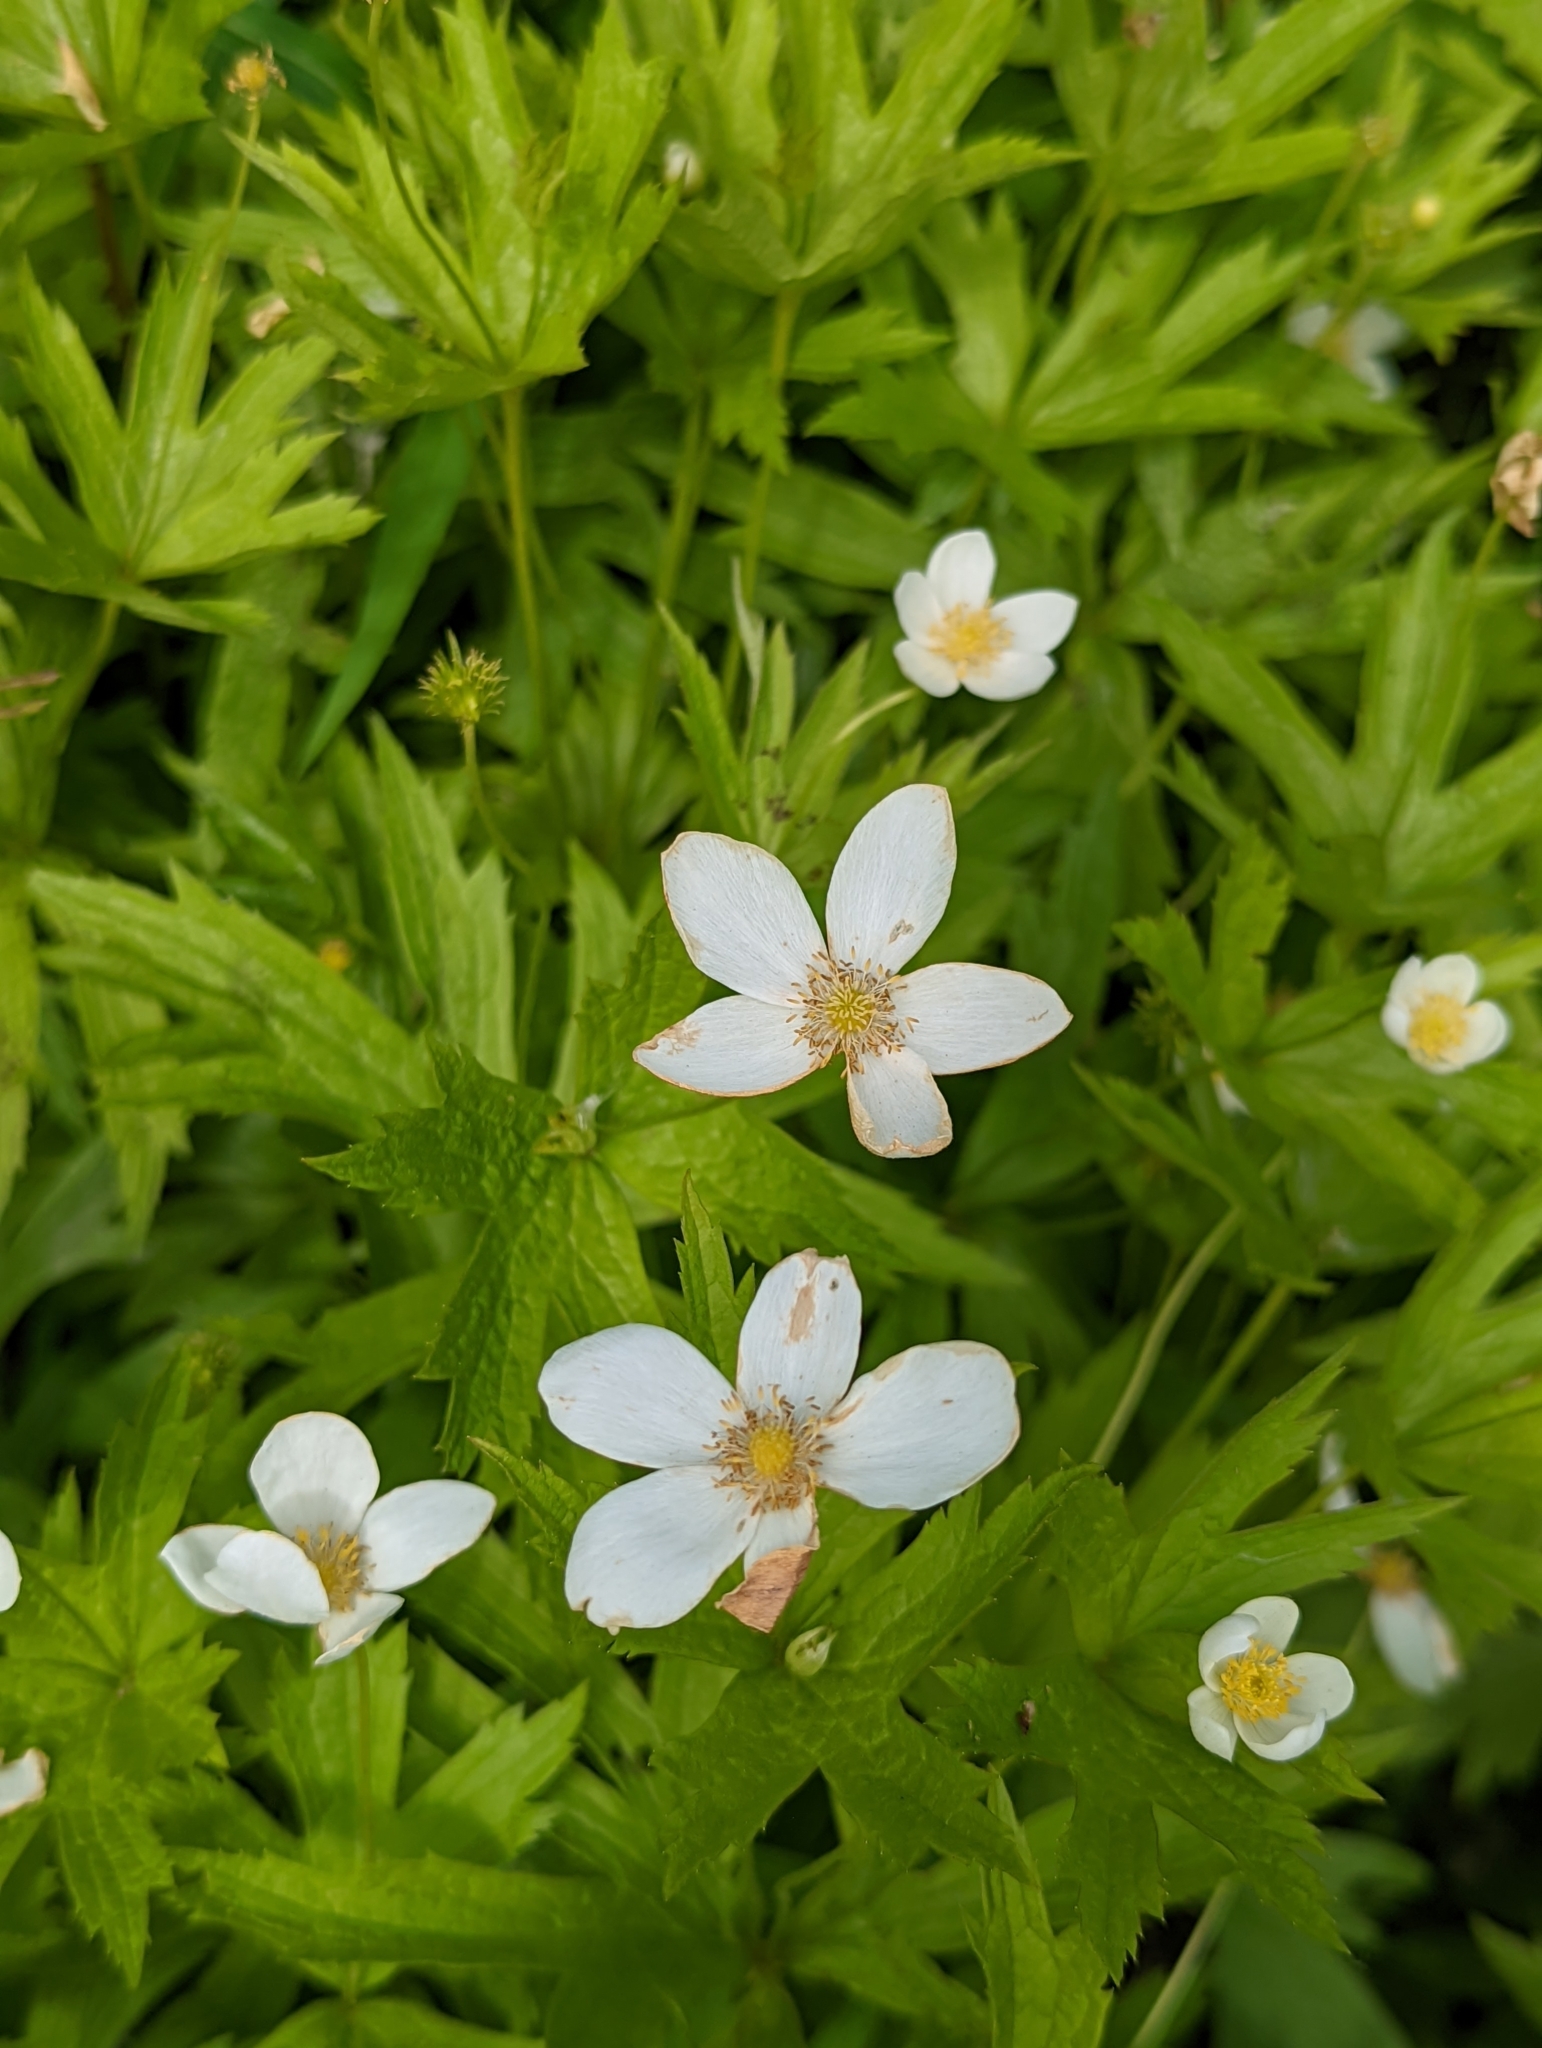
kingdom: Plantae
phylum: Tracheophyta
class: Magnoliopsida
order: Ranunculales
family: Ranunculaceae
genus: Anemonastrum
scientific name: Anemonastrum canadense
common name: Canada anemone
